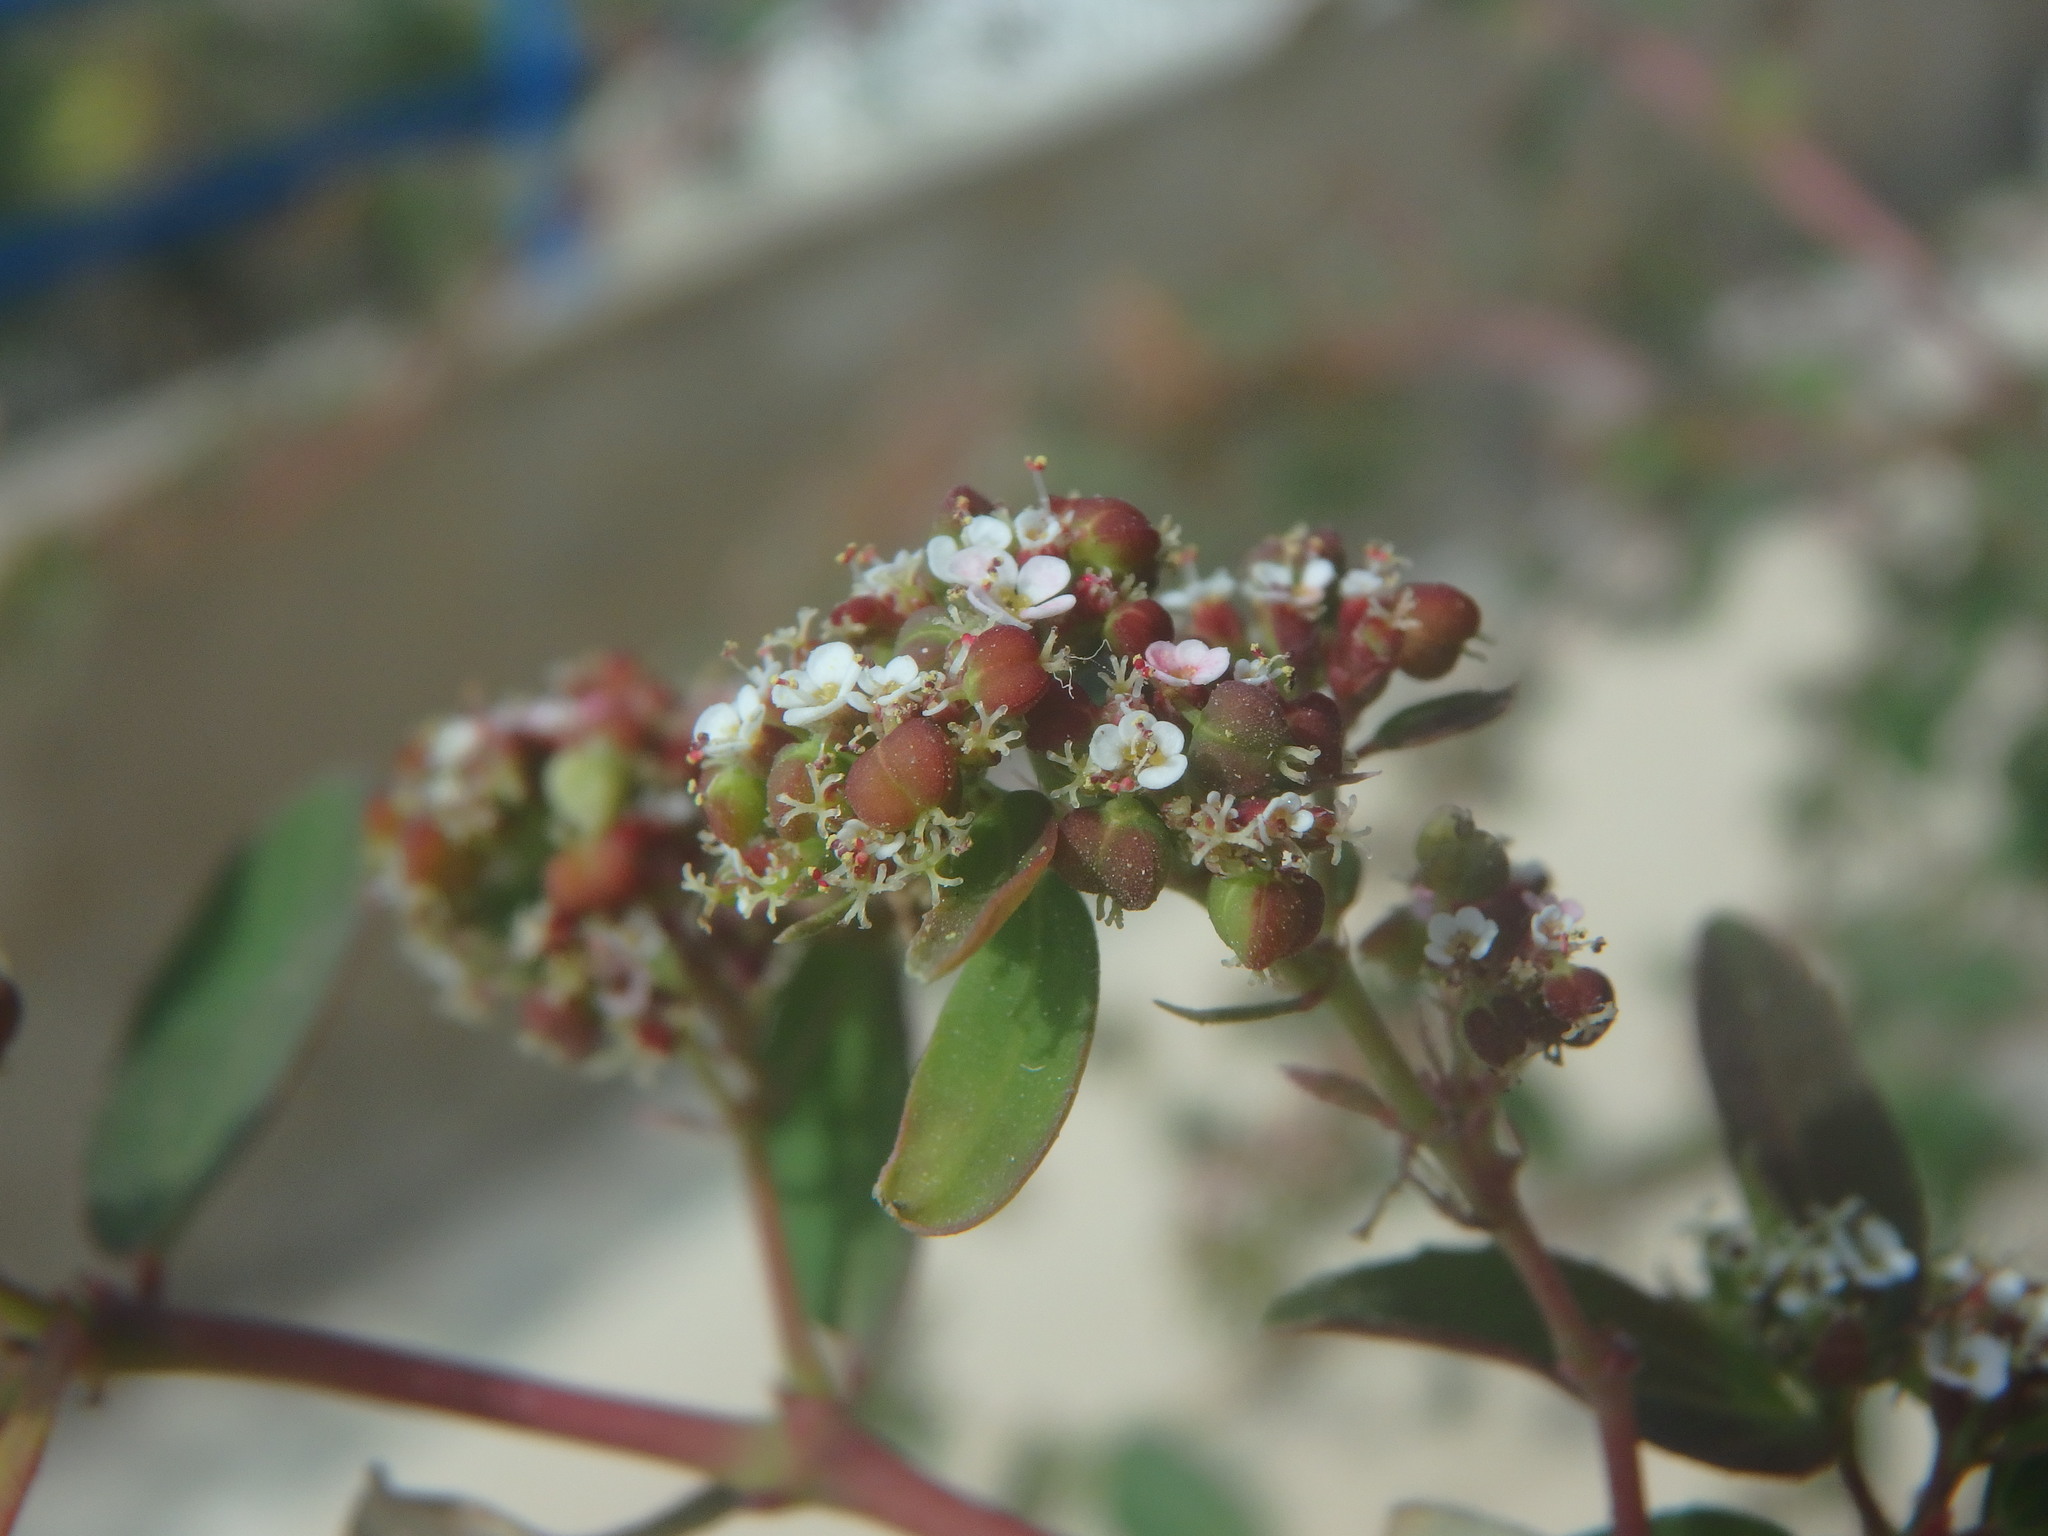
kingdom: Plantae
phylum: Tracheophyta
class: Magnoliopsida
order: Malpighiales
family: Euphorbiaceae
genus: Euphorbia
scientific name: Euphorbia hypericifolia
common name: Graceful sandmat
